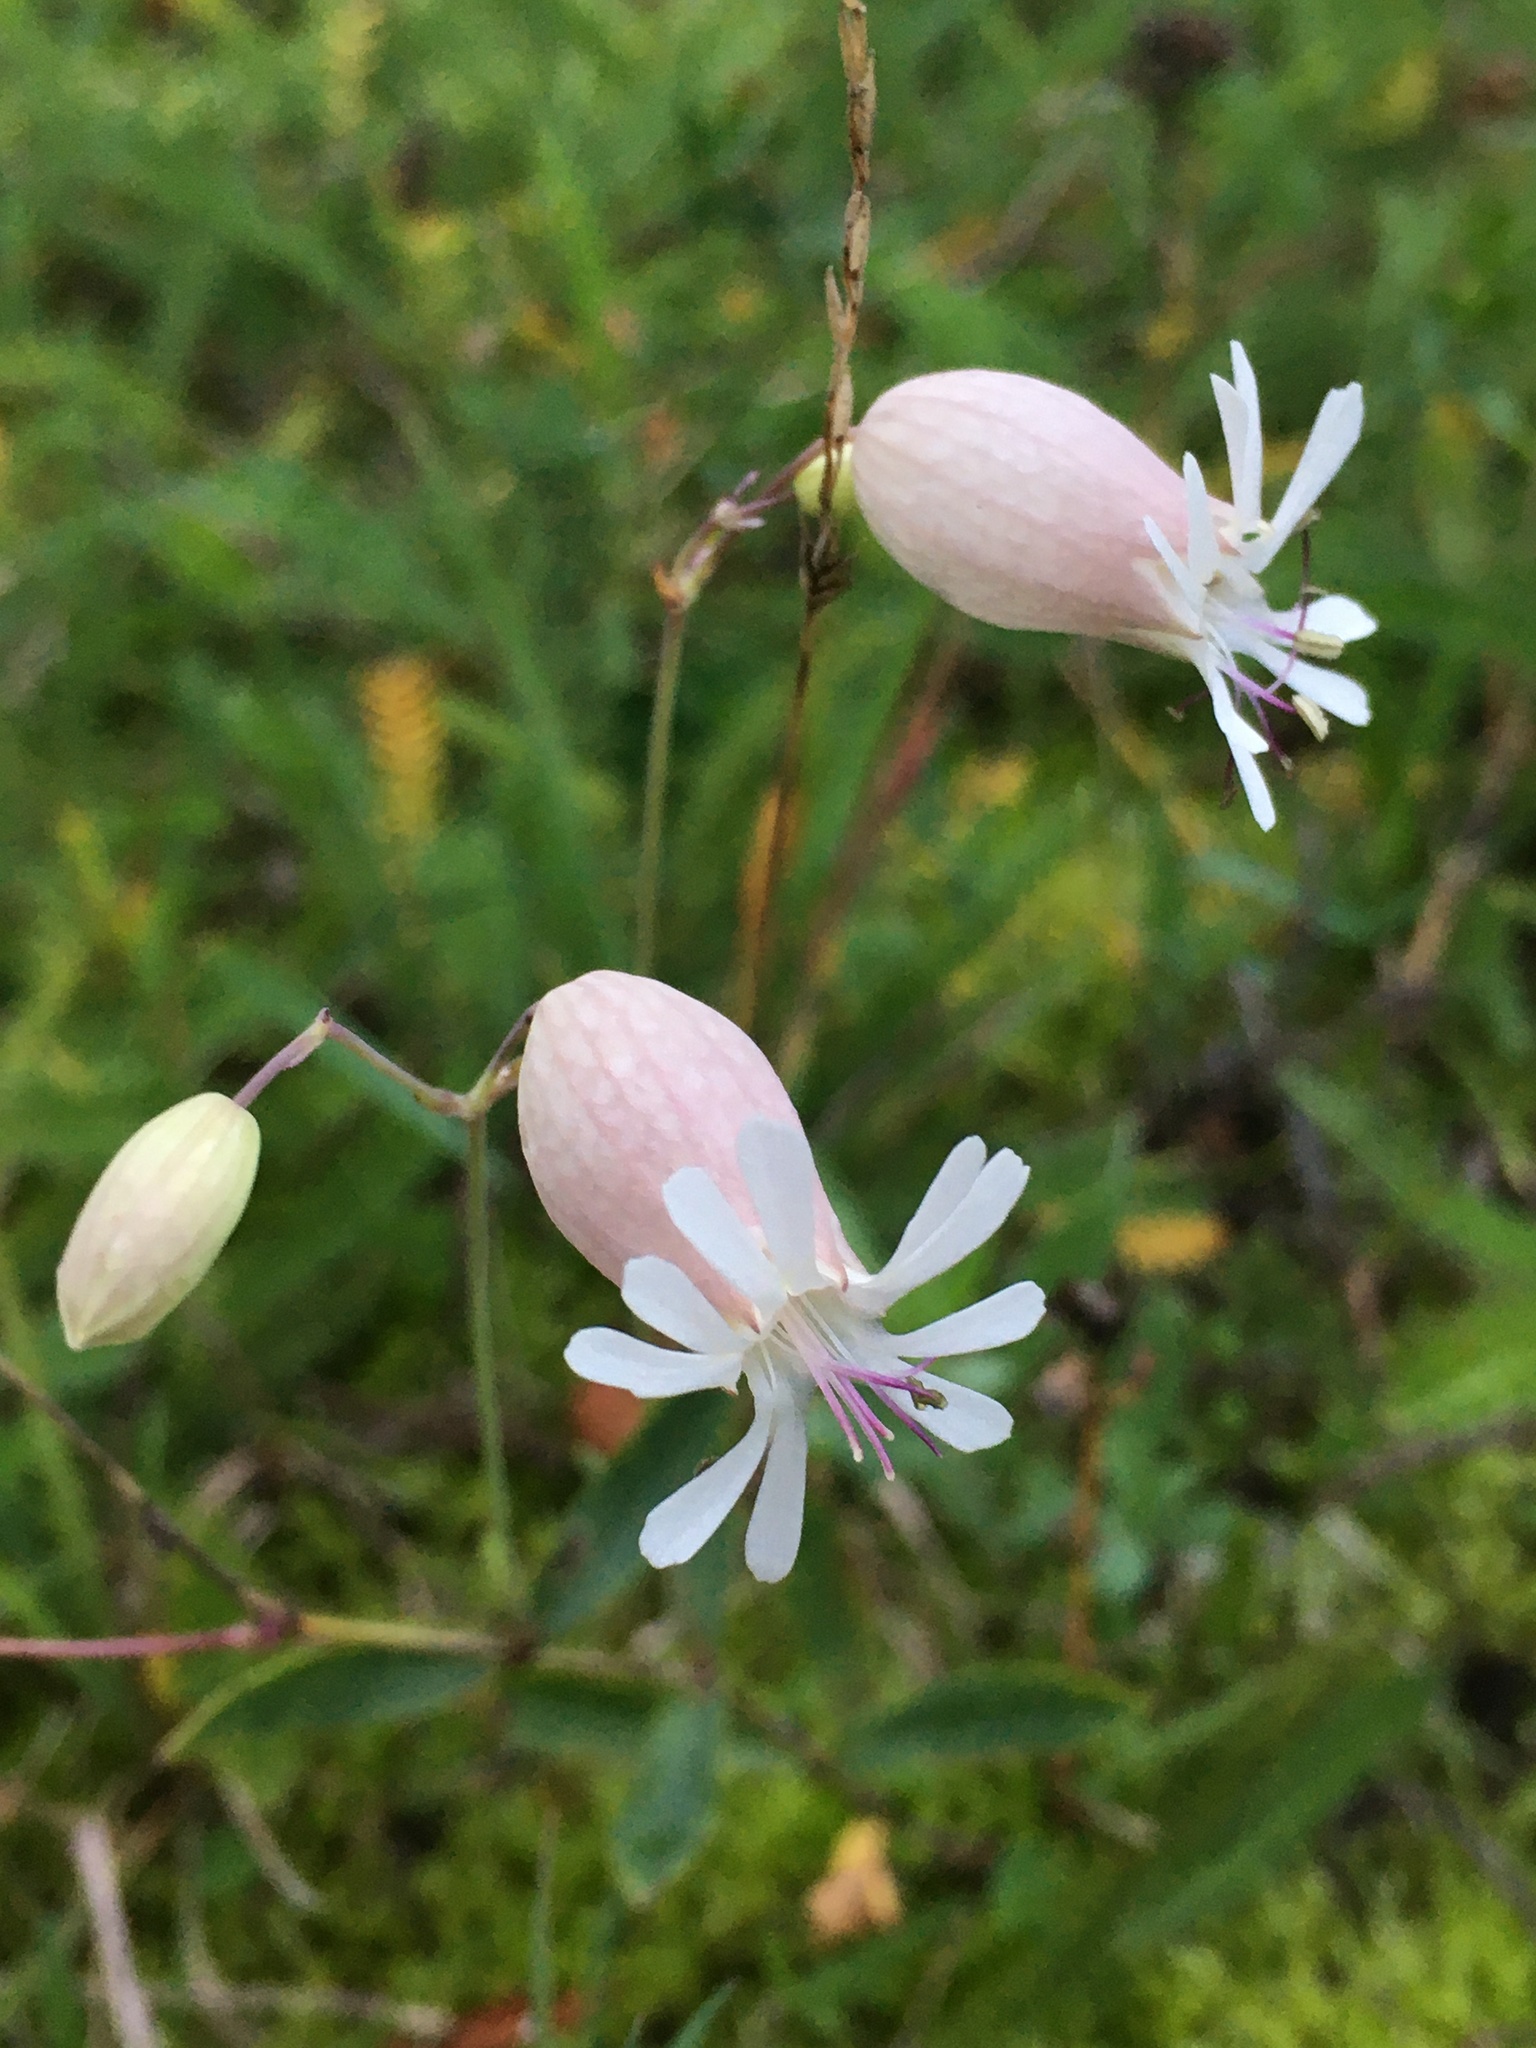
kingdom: Plantae
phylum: Tracheophyta
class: Magnoliopsida
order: Caryophyllales
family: Caryophyllaceae
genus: Silene
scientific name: Silene vulgaris
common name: Bladder campion
